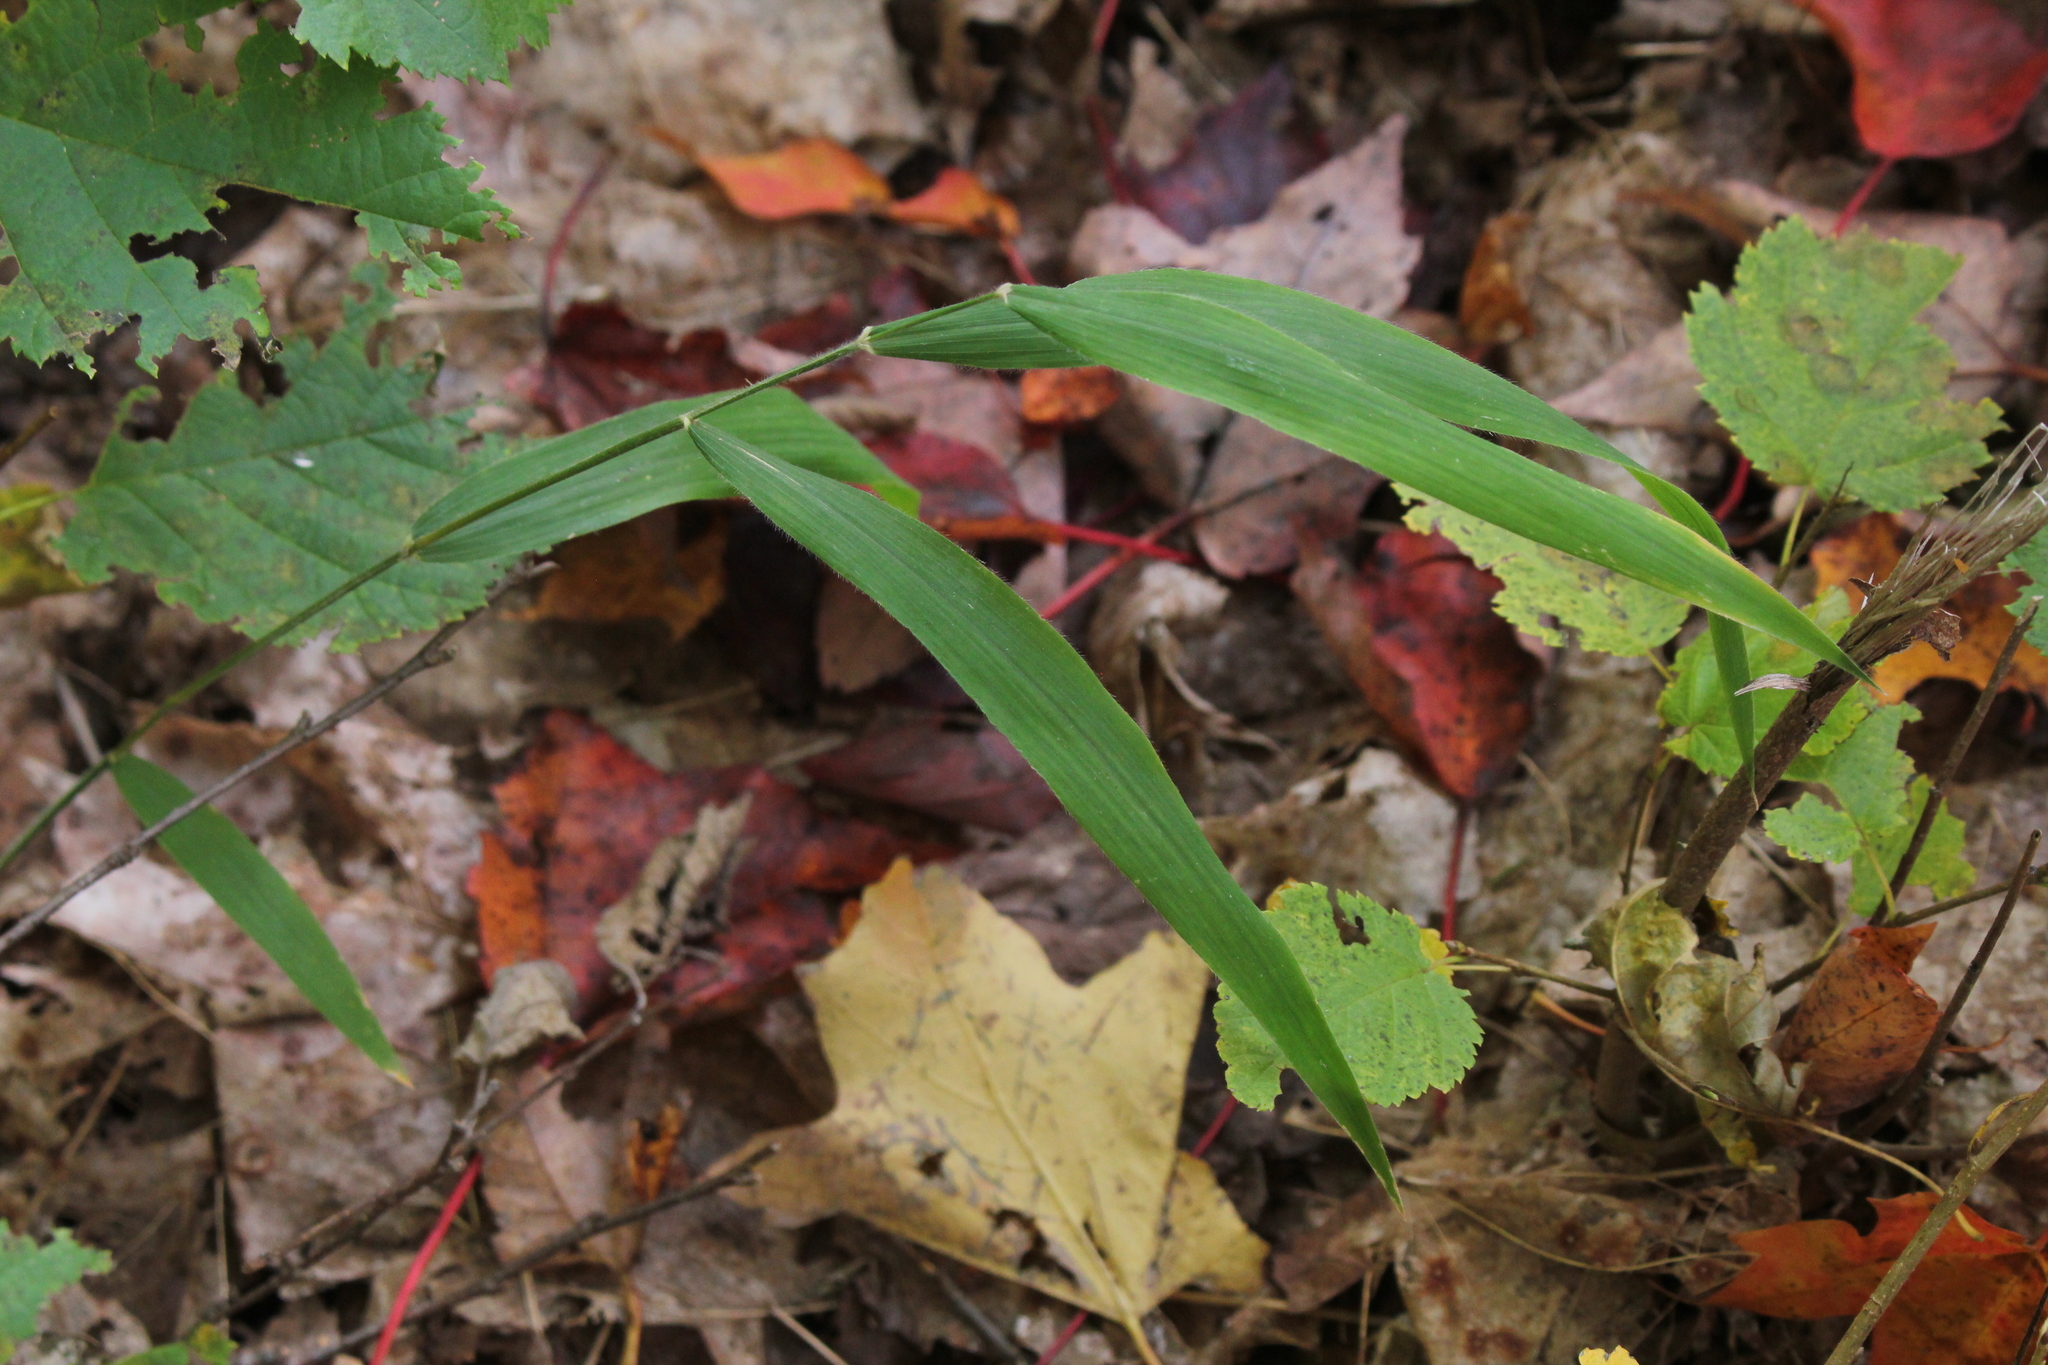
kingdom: Plantae
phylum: Tracheophyta
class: Liliopsida
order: Poales
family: Poaceae
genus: Brachyelytrum
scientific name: Brachyelytrum aristosum
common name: Northern shorthusk
